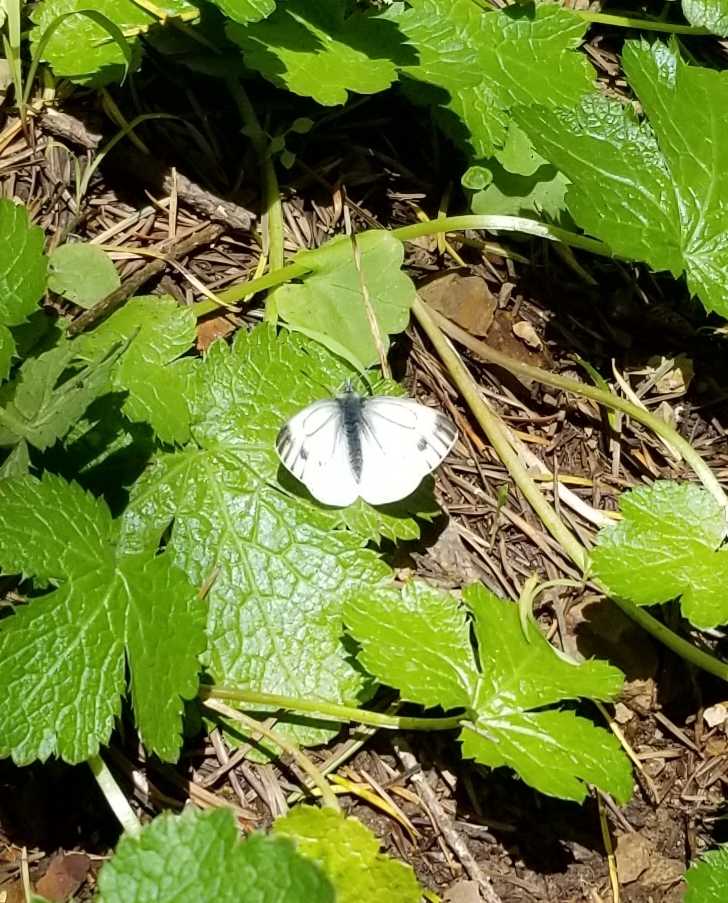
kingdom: Animalia
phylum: Arthropoda
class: Insecta
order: Lepidoptera
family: Pieridae
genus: Pieris
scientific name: Pieris marginalis
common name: Margined white
